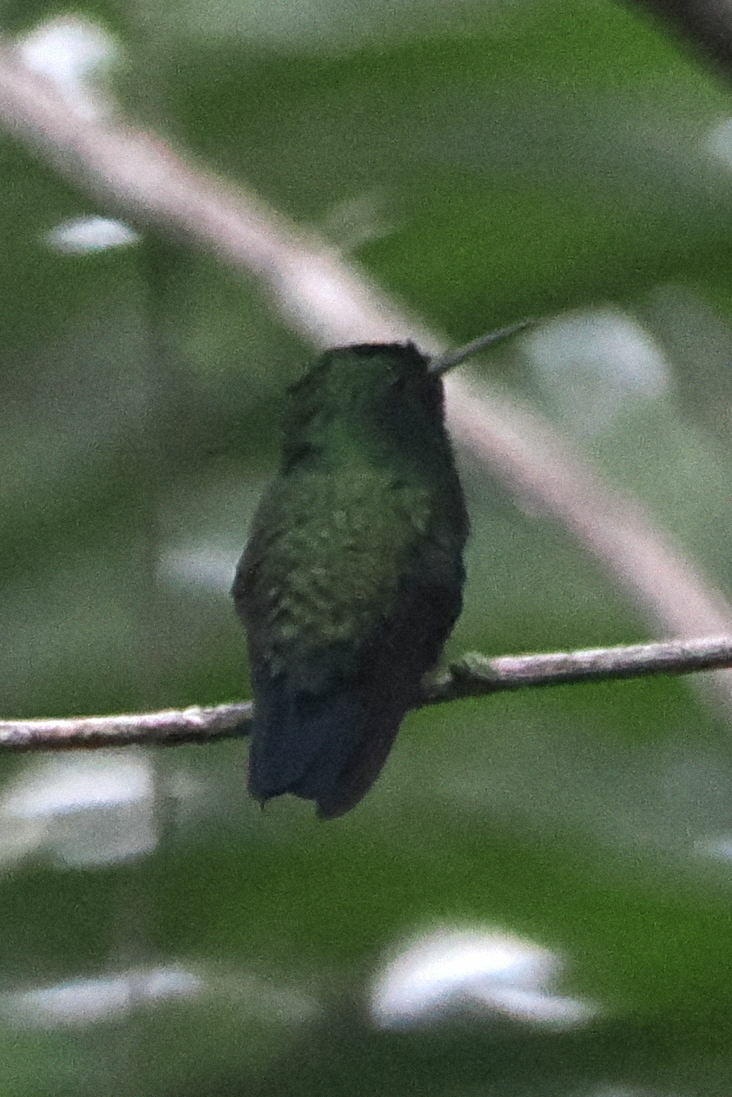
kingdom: Animalia
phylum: Chordata
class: Aves
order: Apodiformes
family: Trochilidae
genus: Chlorestes
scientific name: Chlorestes notata
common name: Blue-chinned sapphire
